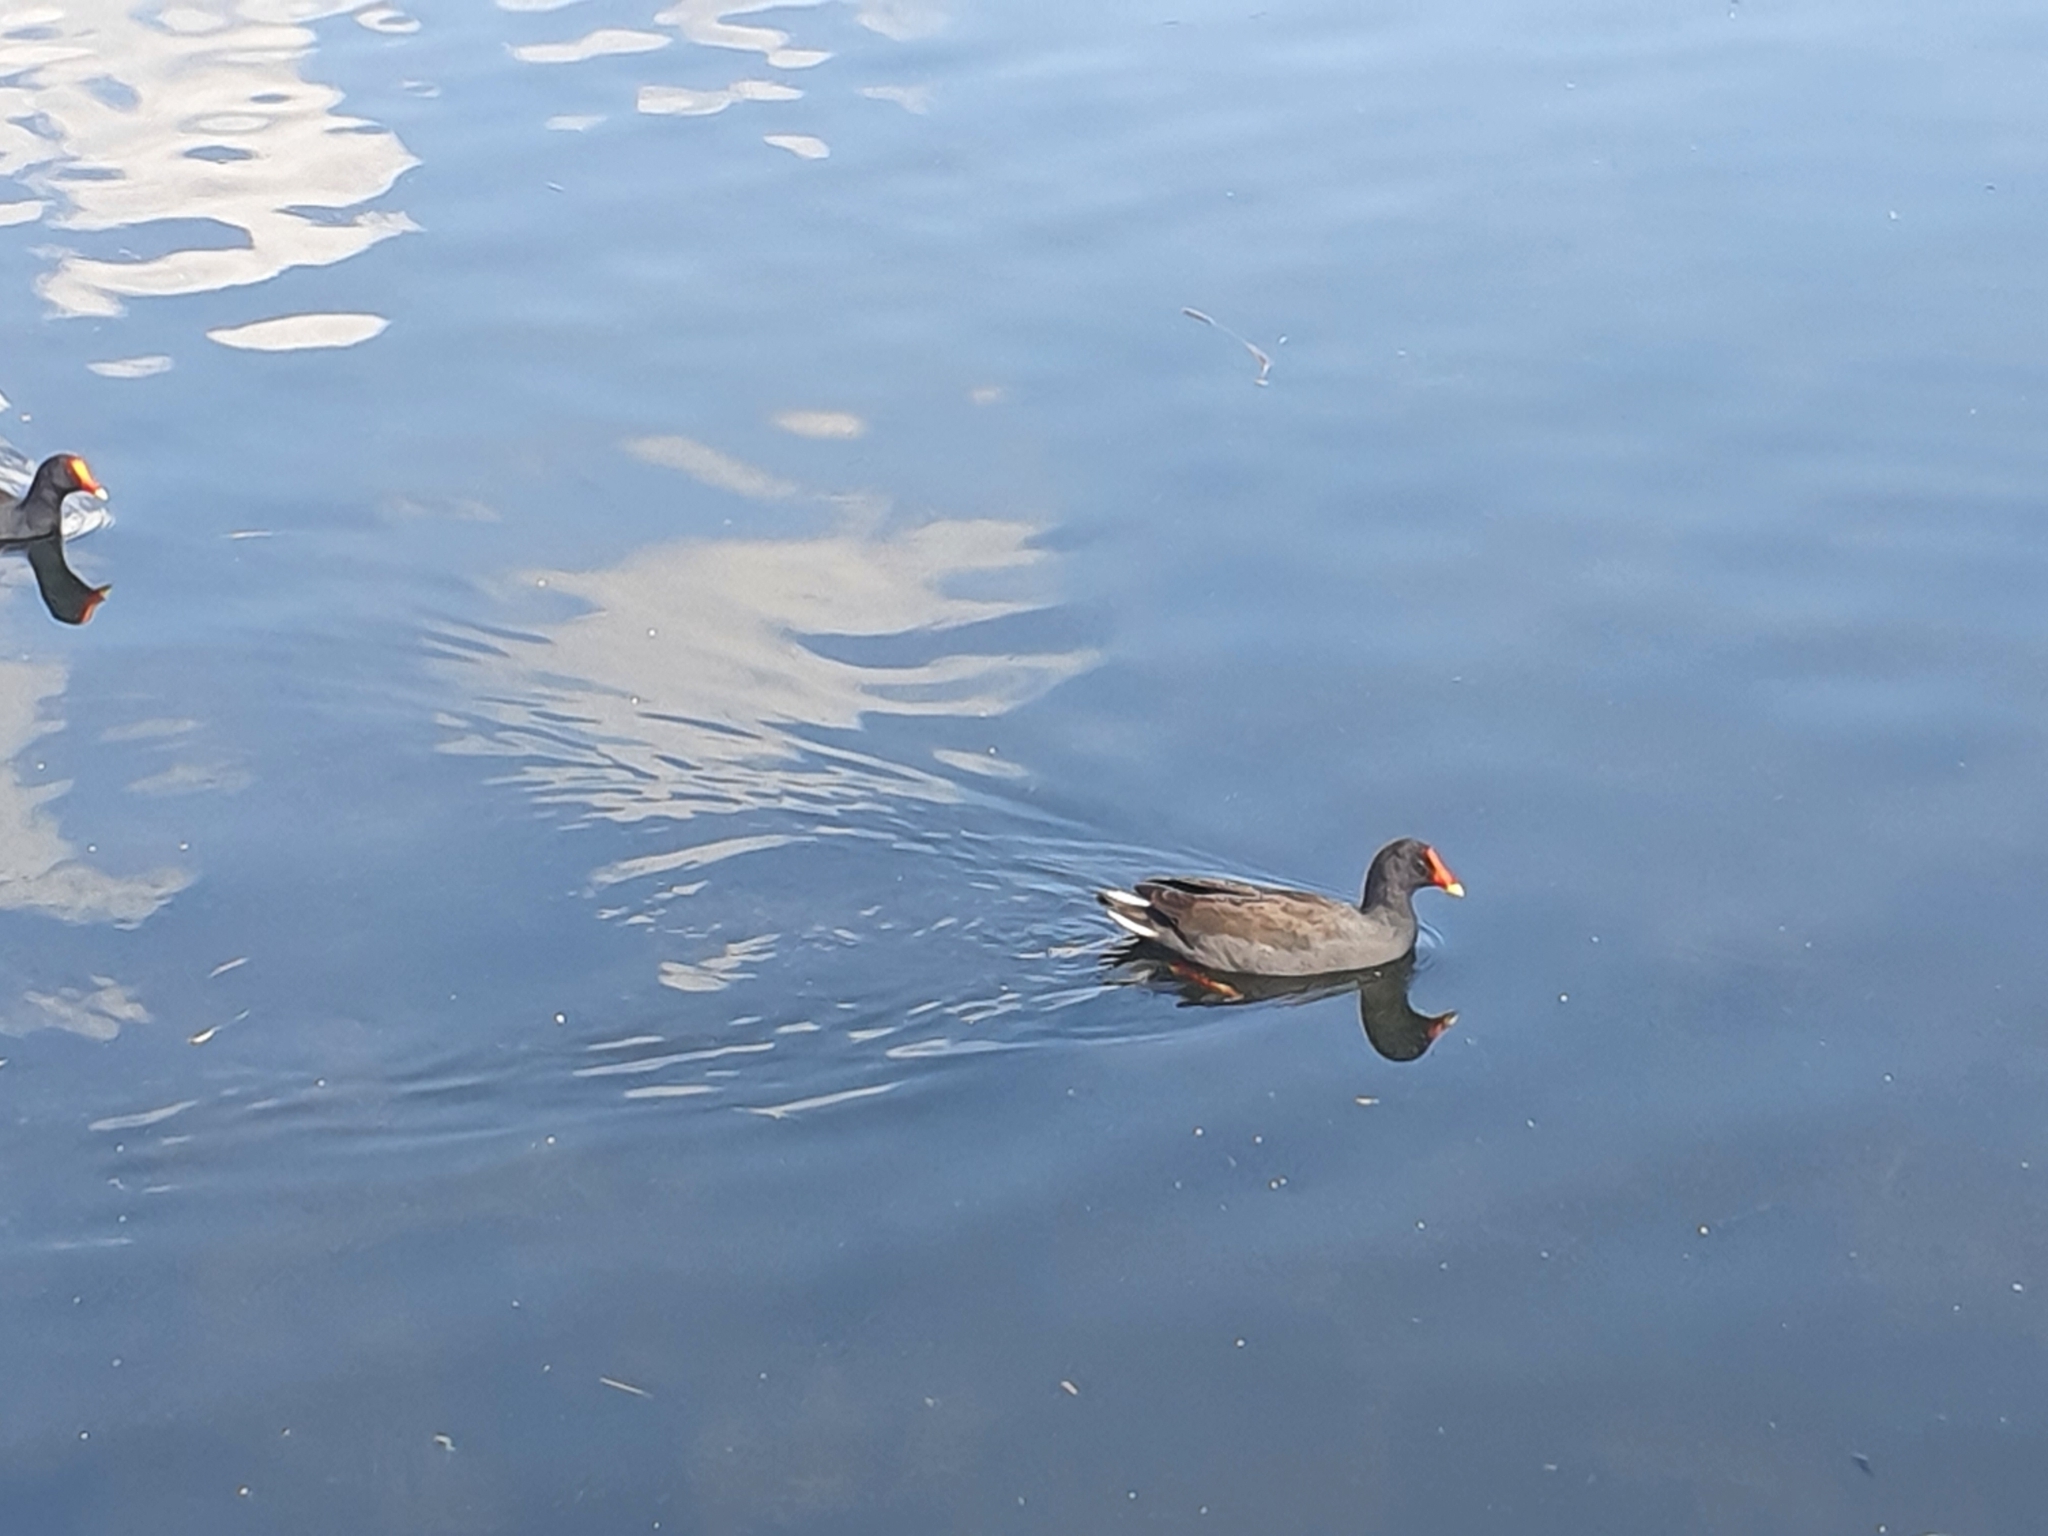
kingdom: Animalia
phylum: Chordata
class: Aves
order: Gruiformes
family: Rallidae
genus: Gallinula
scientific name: Gallinula tenebrosa
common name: Dusky moorhen
